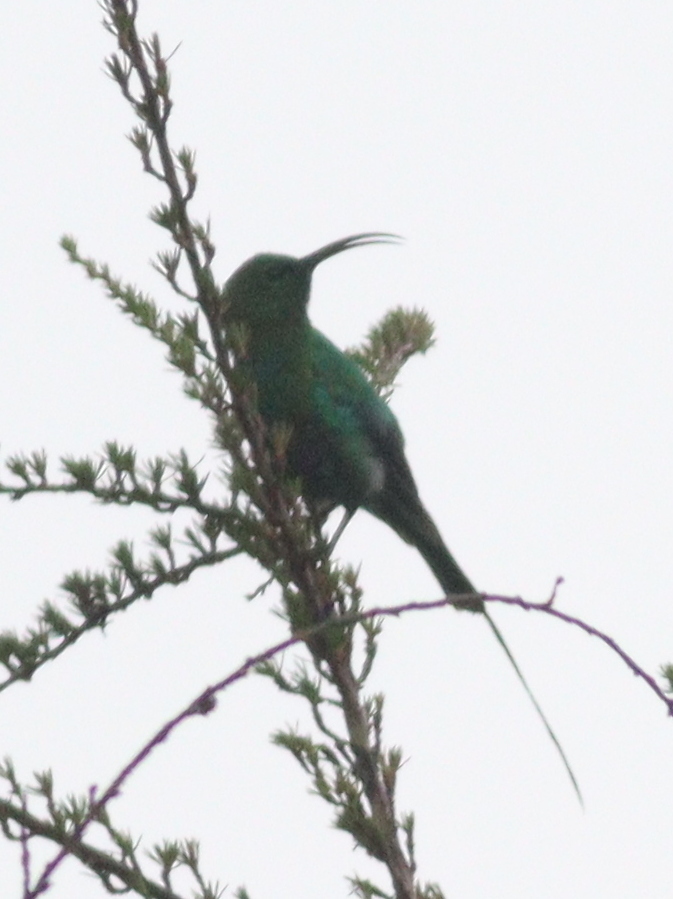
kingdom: Animalia
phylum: Chordata
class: Aves
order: Passeriformes
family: Nectariniidae
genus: Nectarinia
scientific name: Nectarinia famosa
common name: Malachite sunbird
